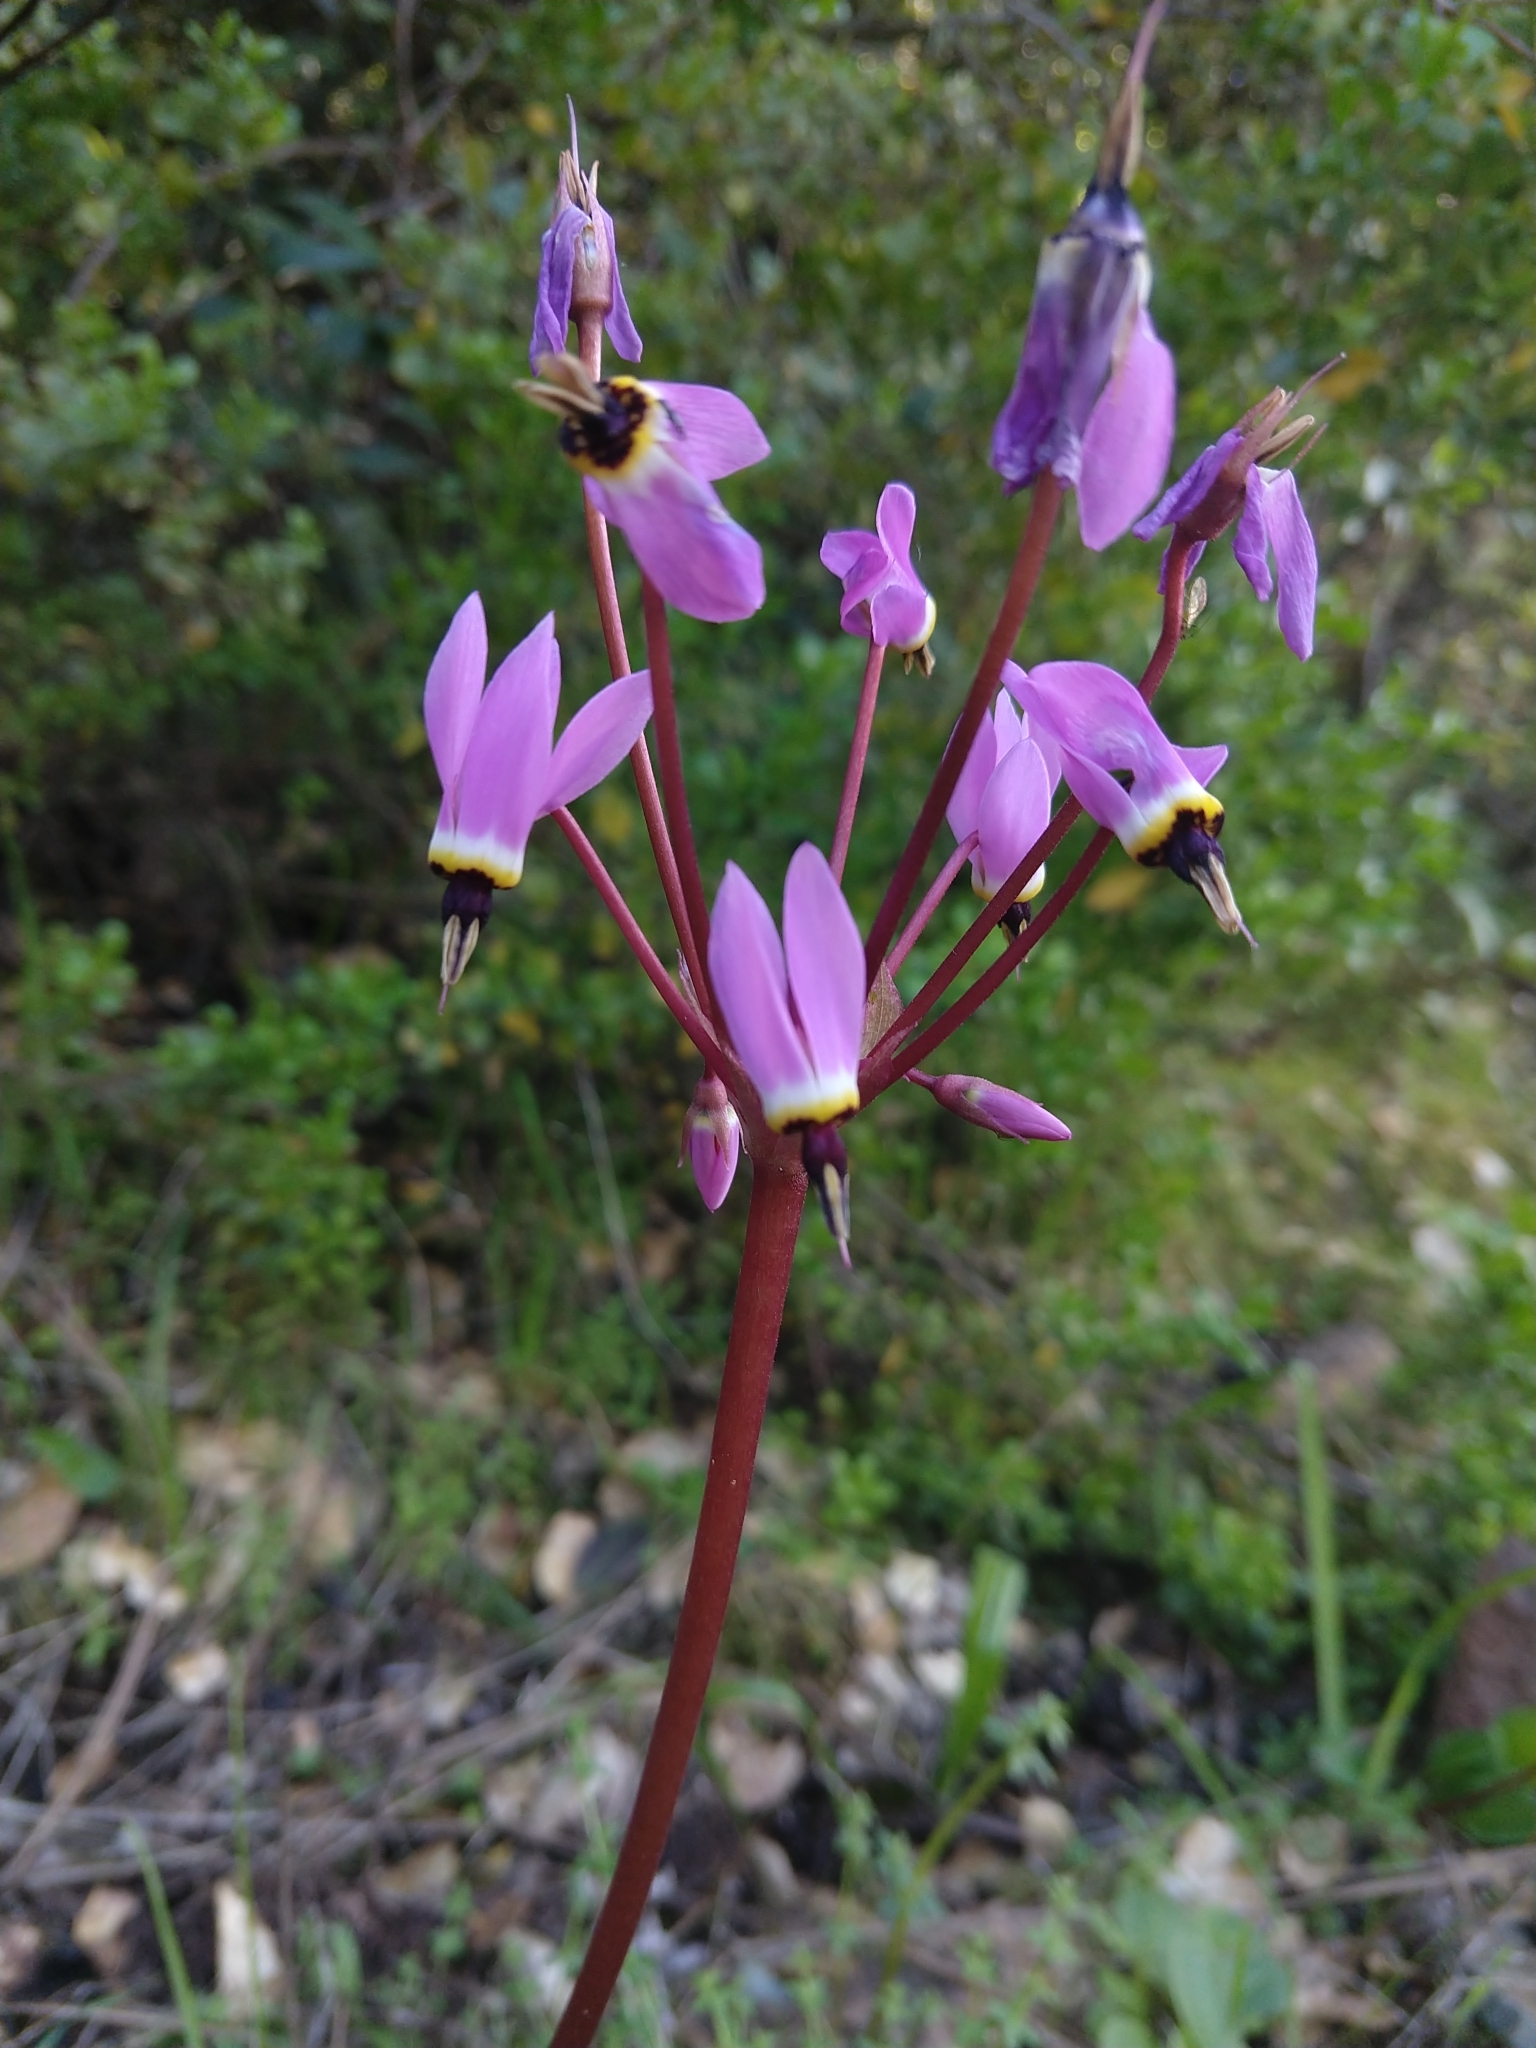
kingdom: Plantae
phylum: Tracheophyta
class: Magnoliopsida
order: Ericales
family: Primulaceae
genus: Dodecatheon
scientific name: Dodecatheon hendersonii
